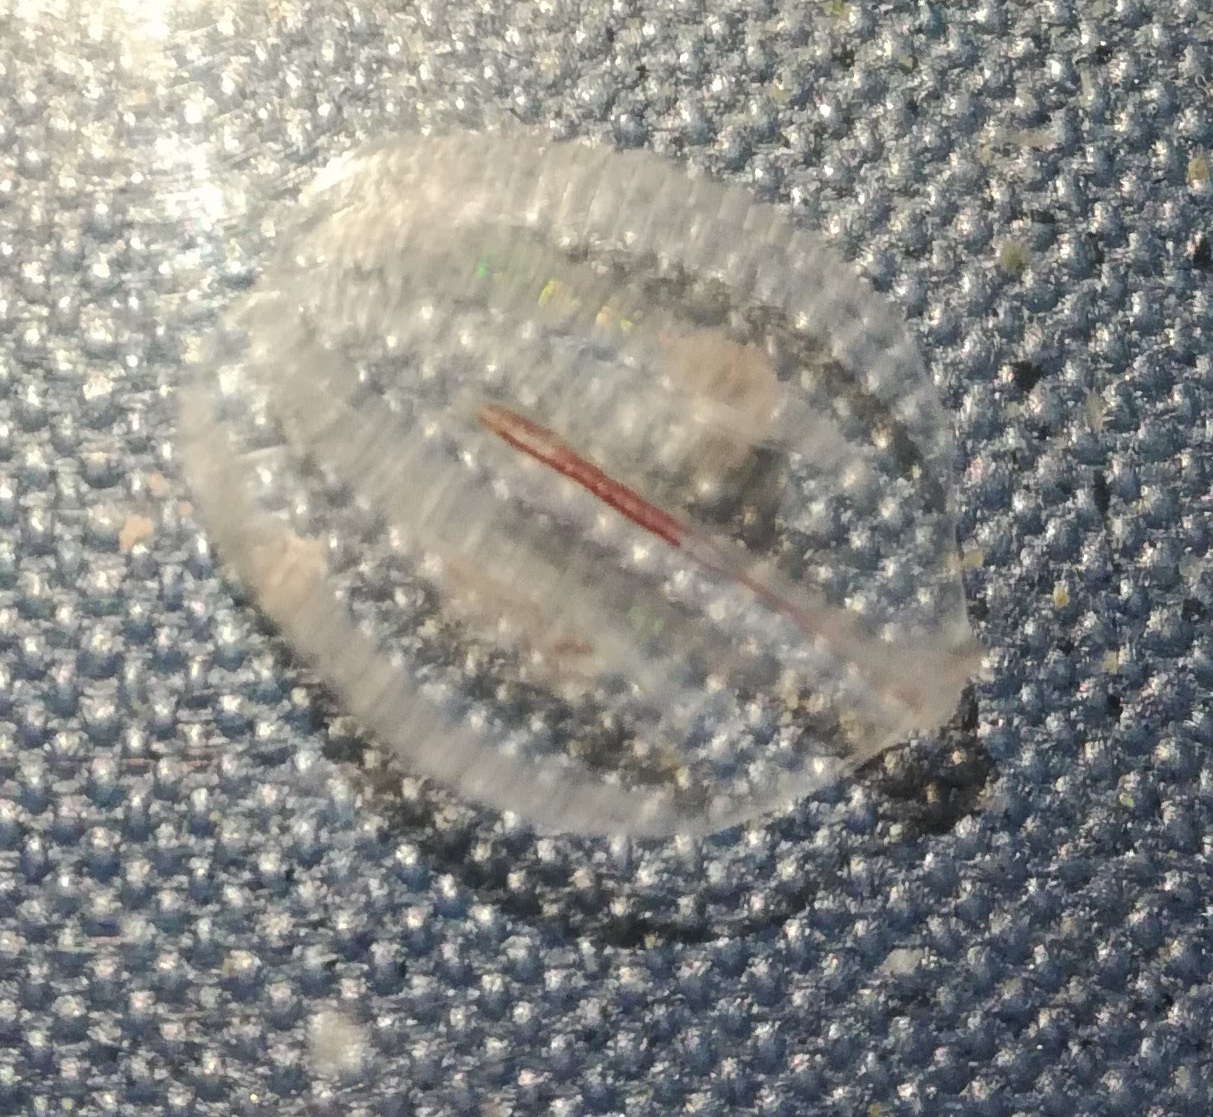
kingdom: Animalia
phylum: Ctenophora
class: Tentaculata
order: Cydippida
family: Pleurobrachiidae
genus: Pleurobrachia
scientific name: Pleurobrachia pileus
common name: Sea gooseberry
